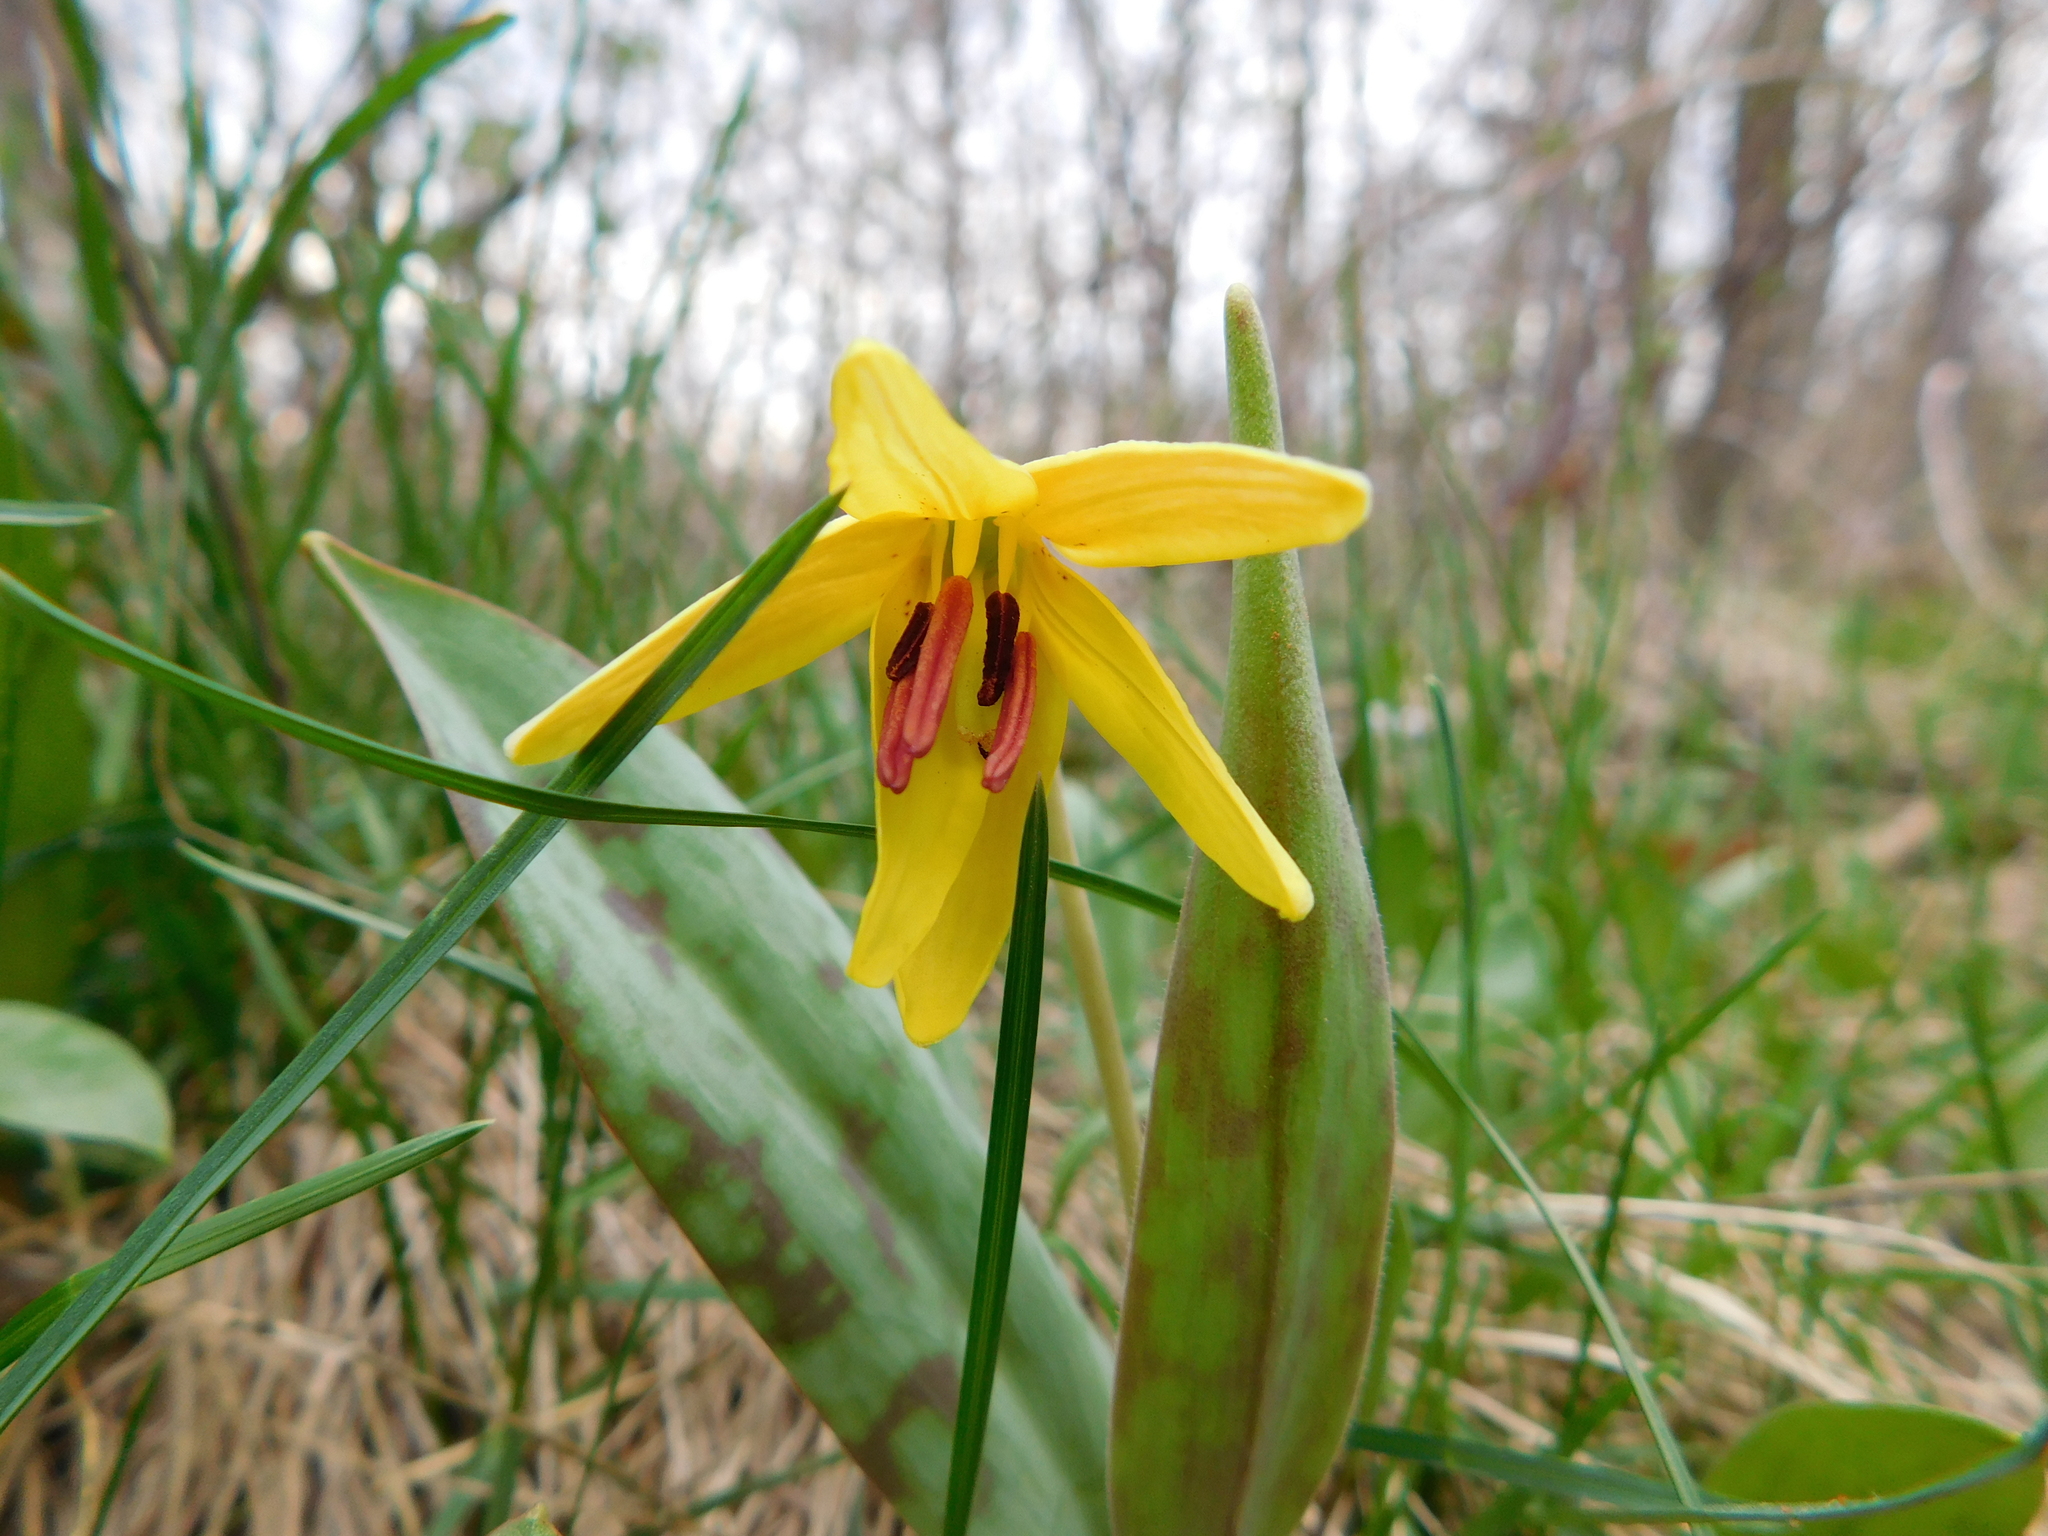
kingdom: Plantae
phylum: Tracheophyta
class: Liliopsida
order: Liliales
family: Liliaceae
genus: Erythronium
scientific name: Erythronium americanum
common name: Yellow adder's-tongue
